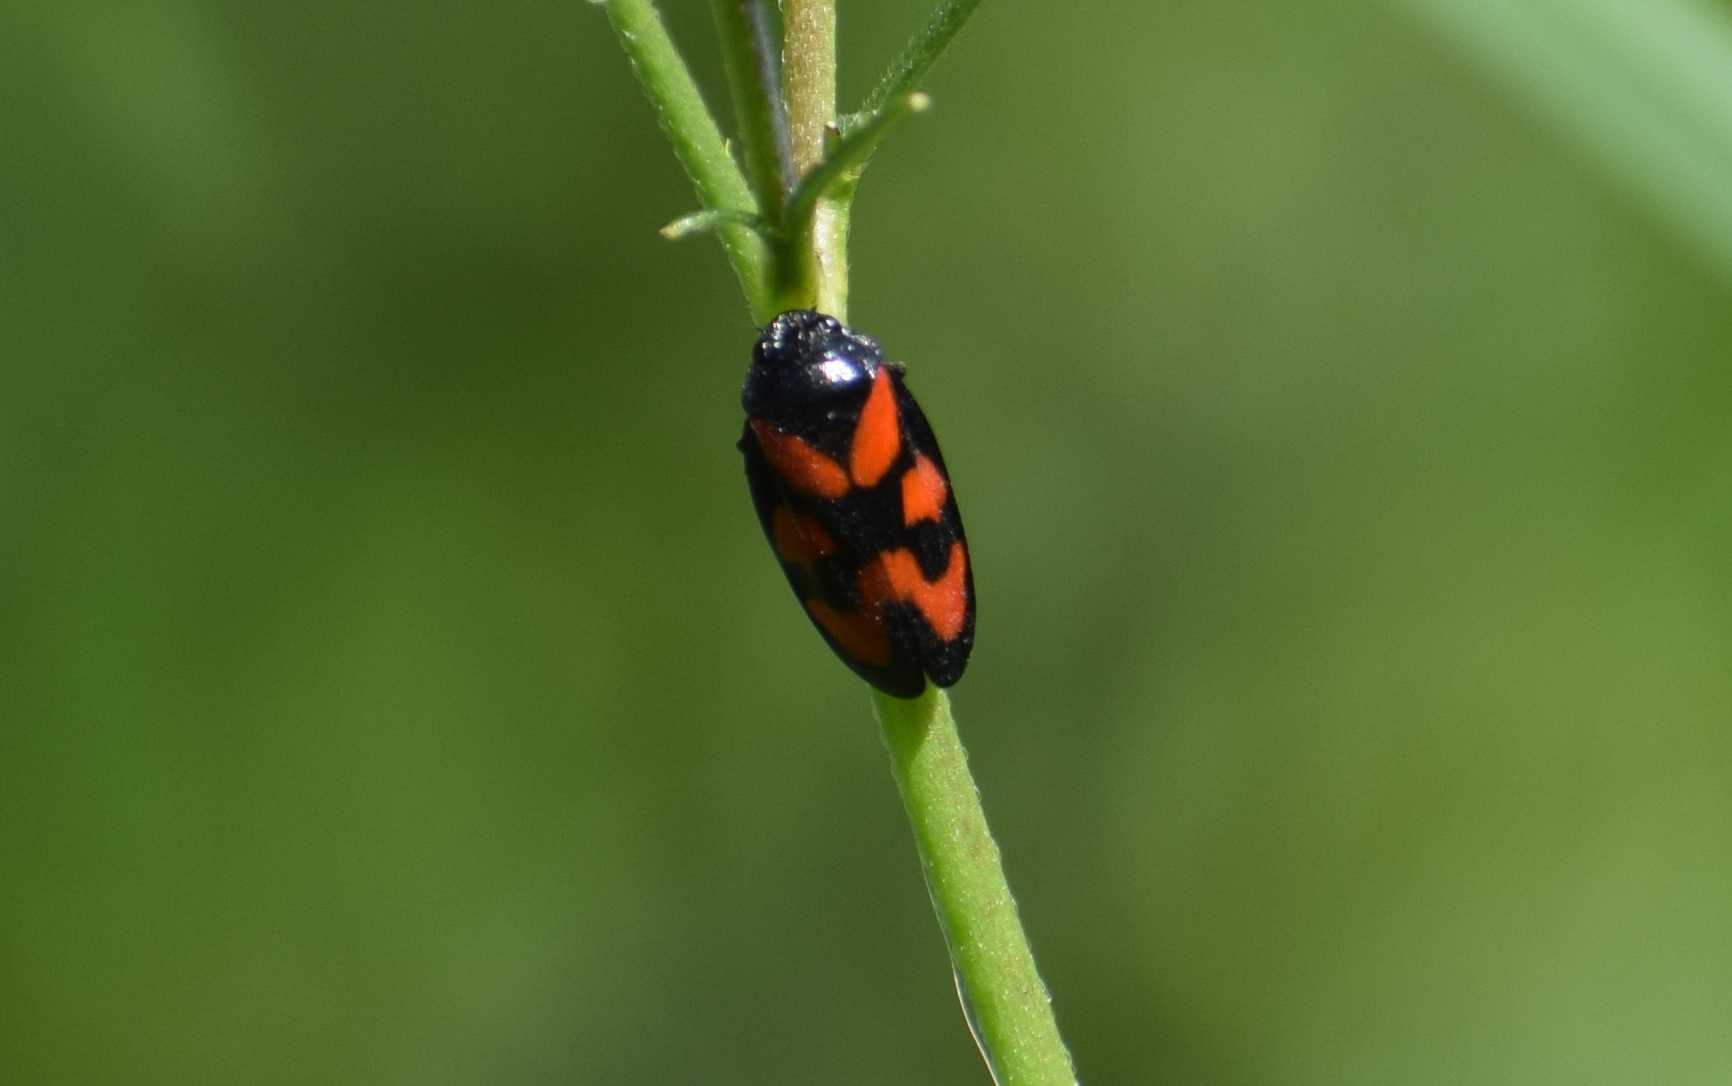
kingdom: Animalia
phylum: Arthropoda
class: Insecta
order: Hemiptera
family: Cercopidae
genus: Cercopis
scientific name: Cercopis vulnerata
